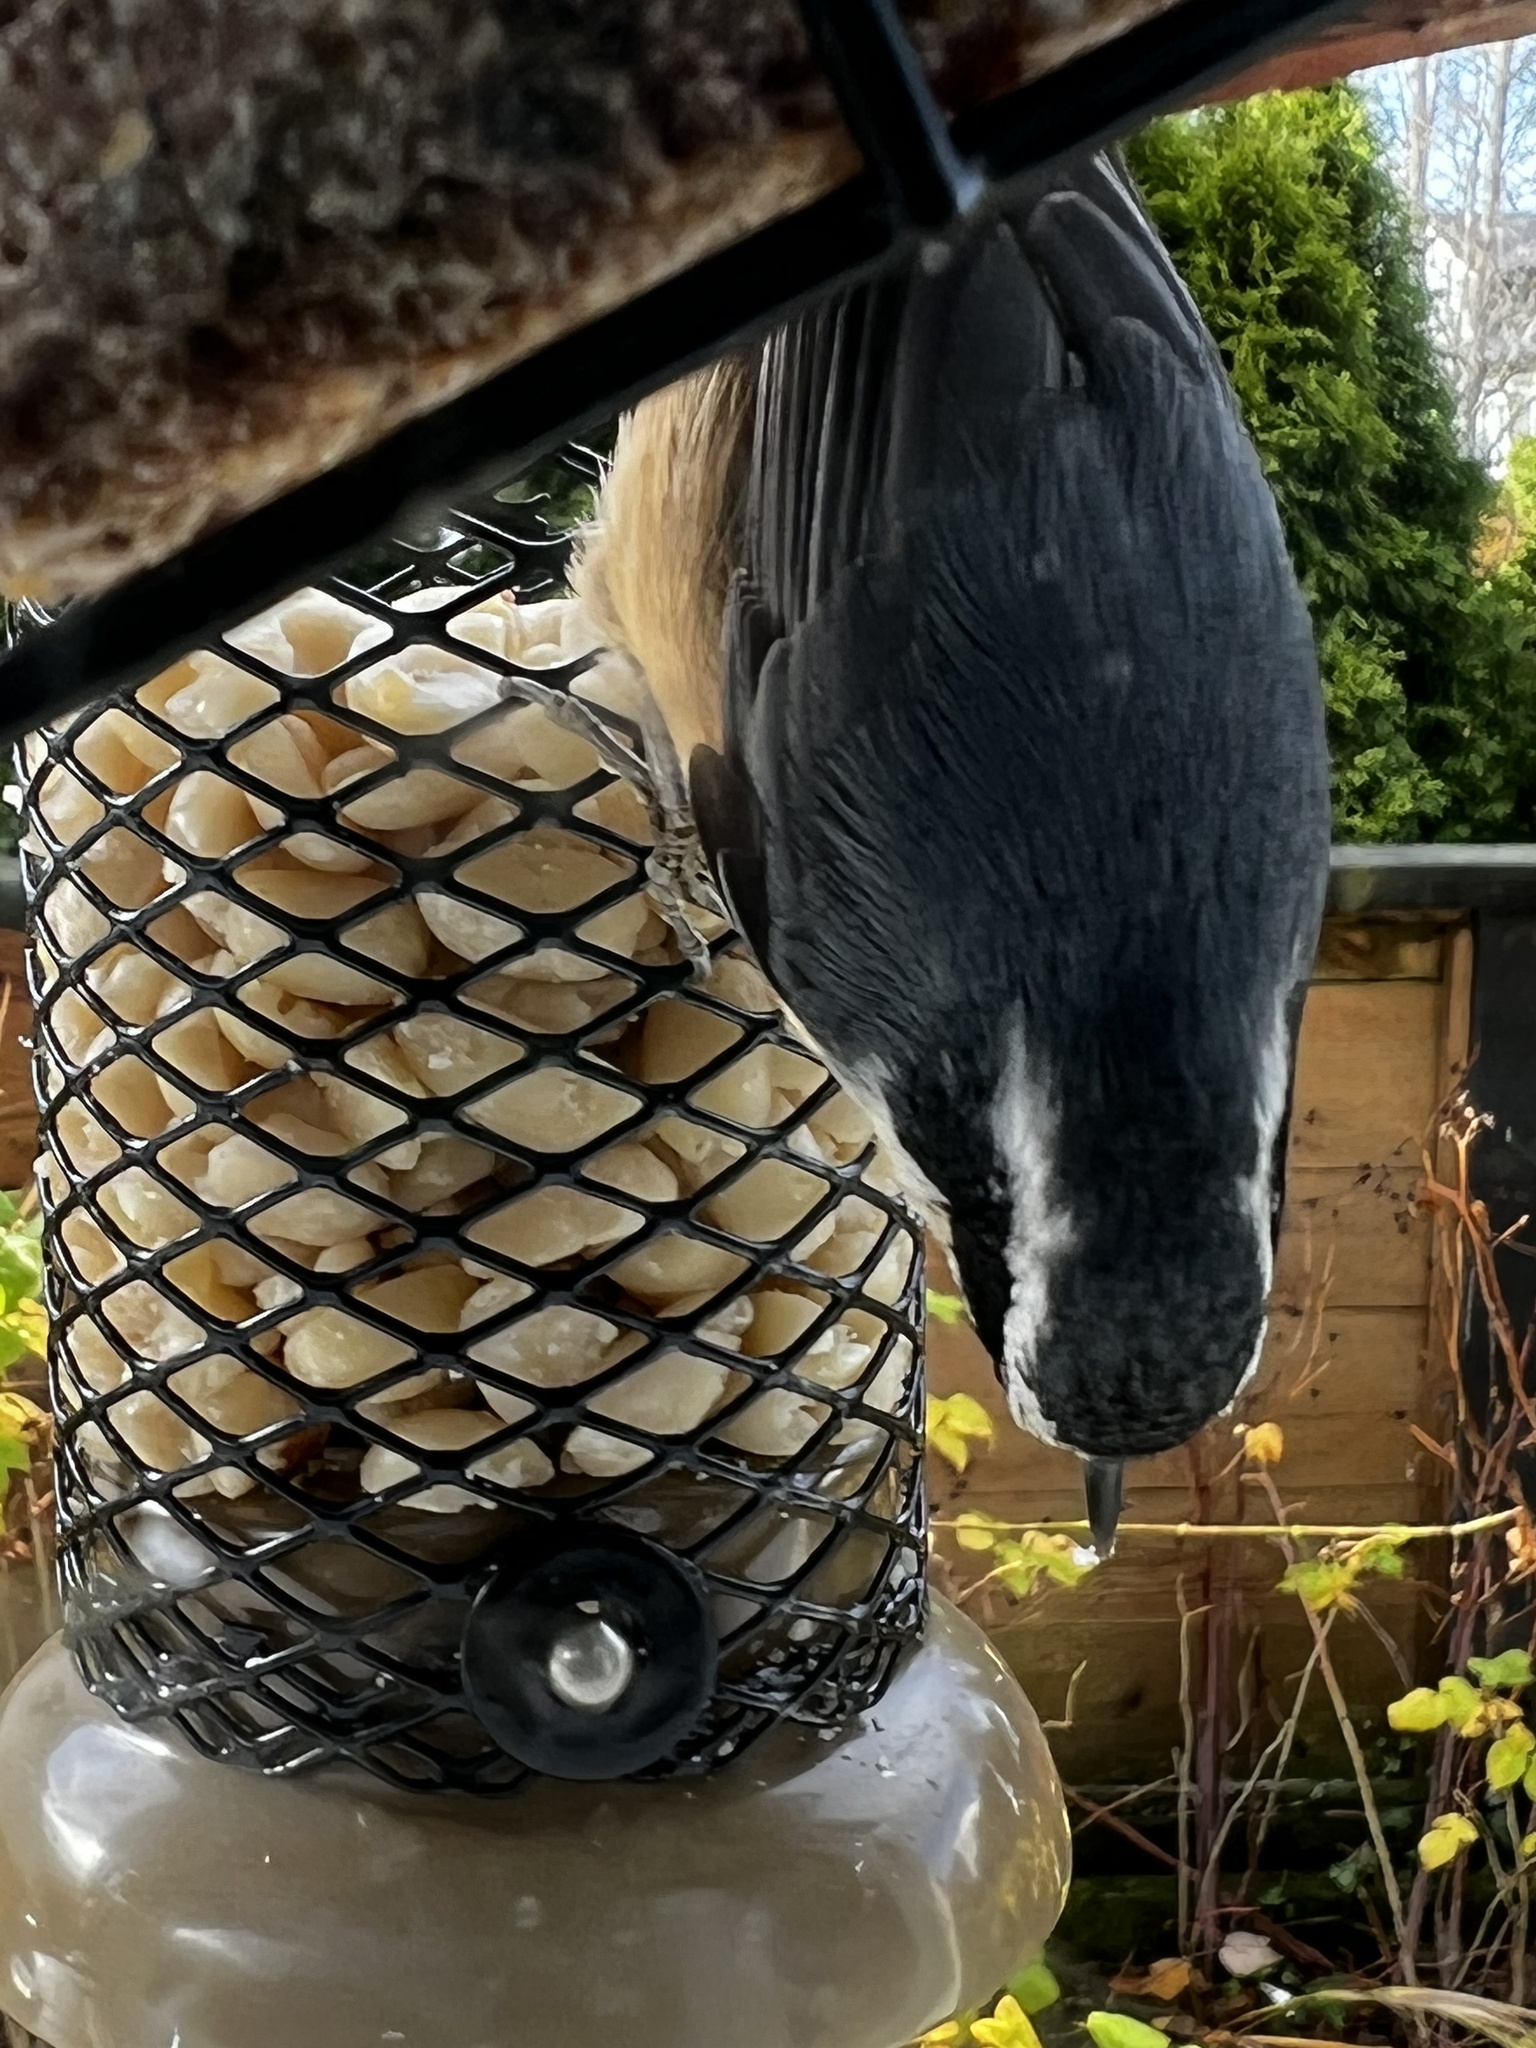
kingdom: Animalia
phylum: Chordata
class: Aves
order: Passeriformes
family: Sittidae
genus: Sitta
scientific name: Sitta canadensis
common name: Red-breasted nuthatch
